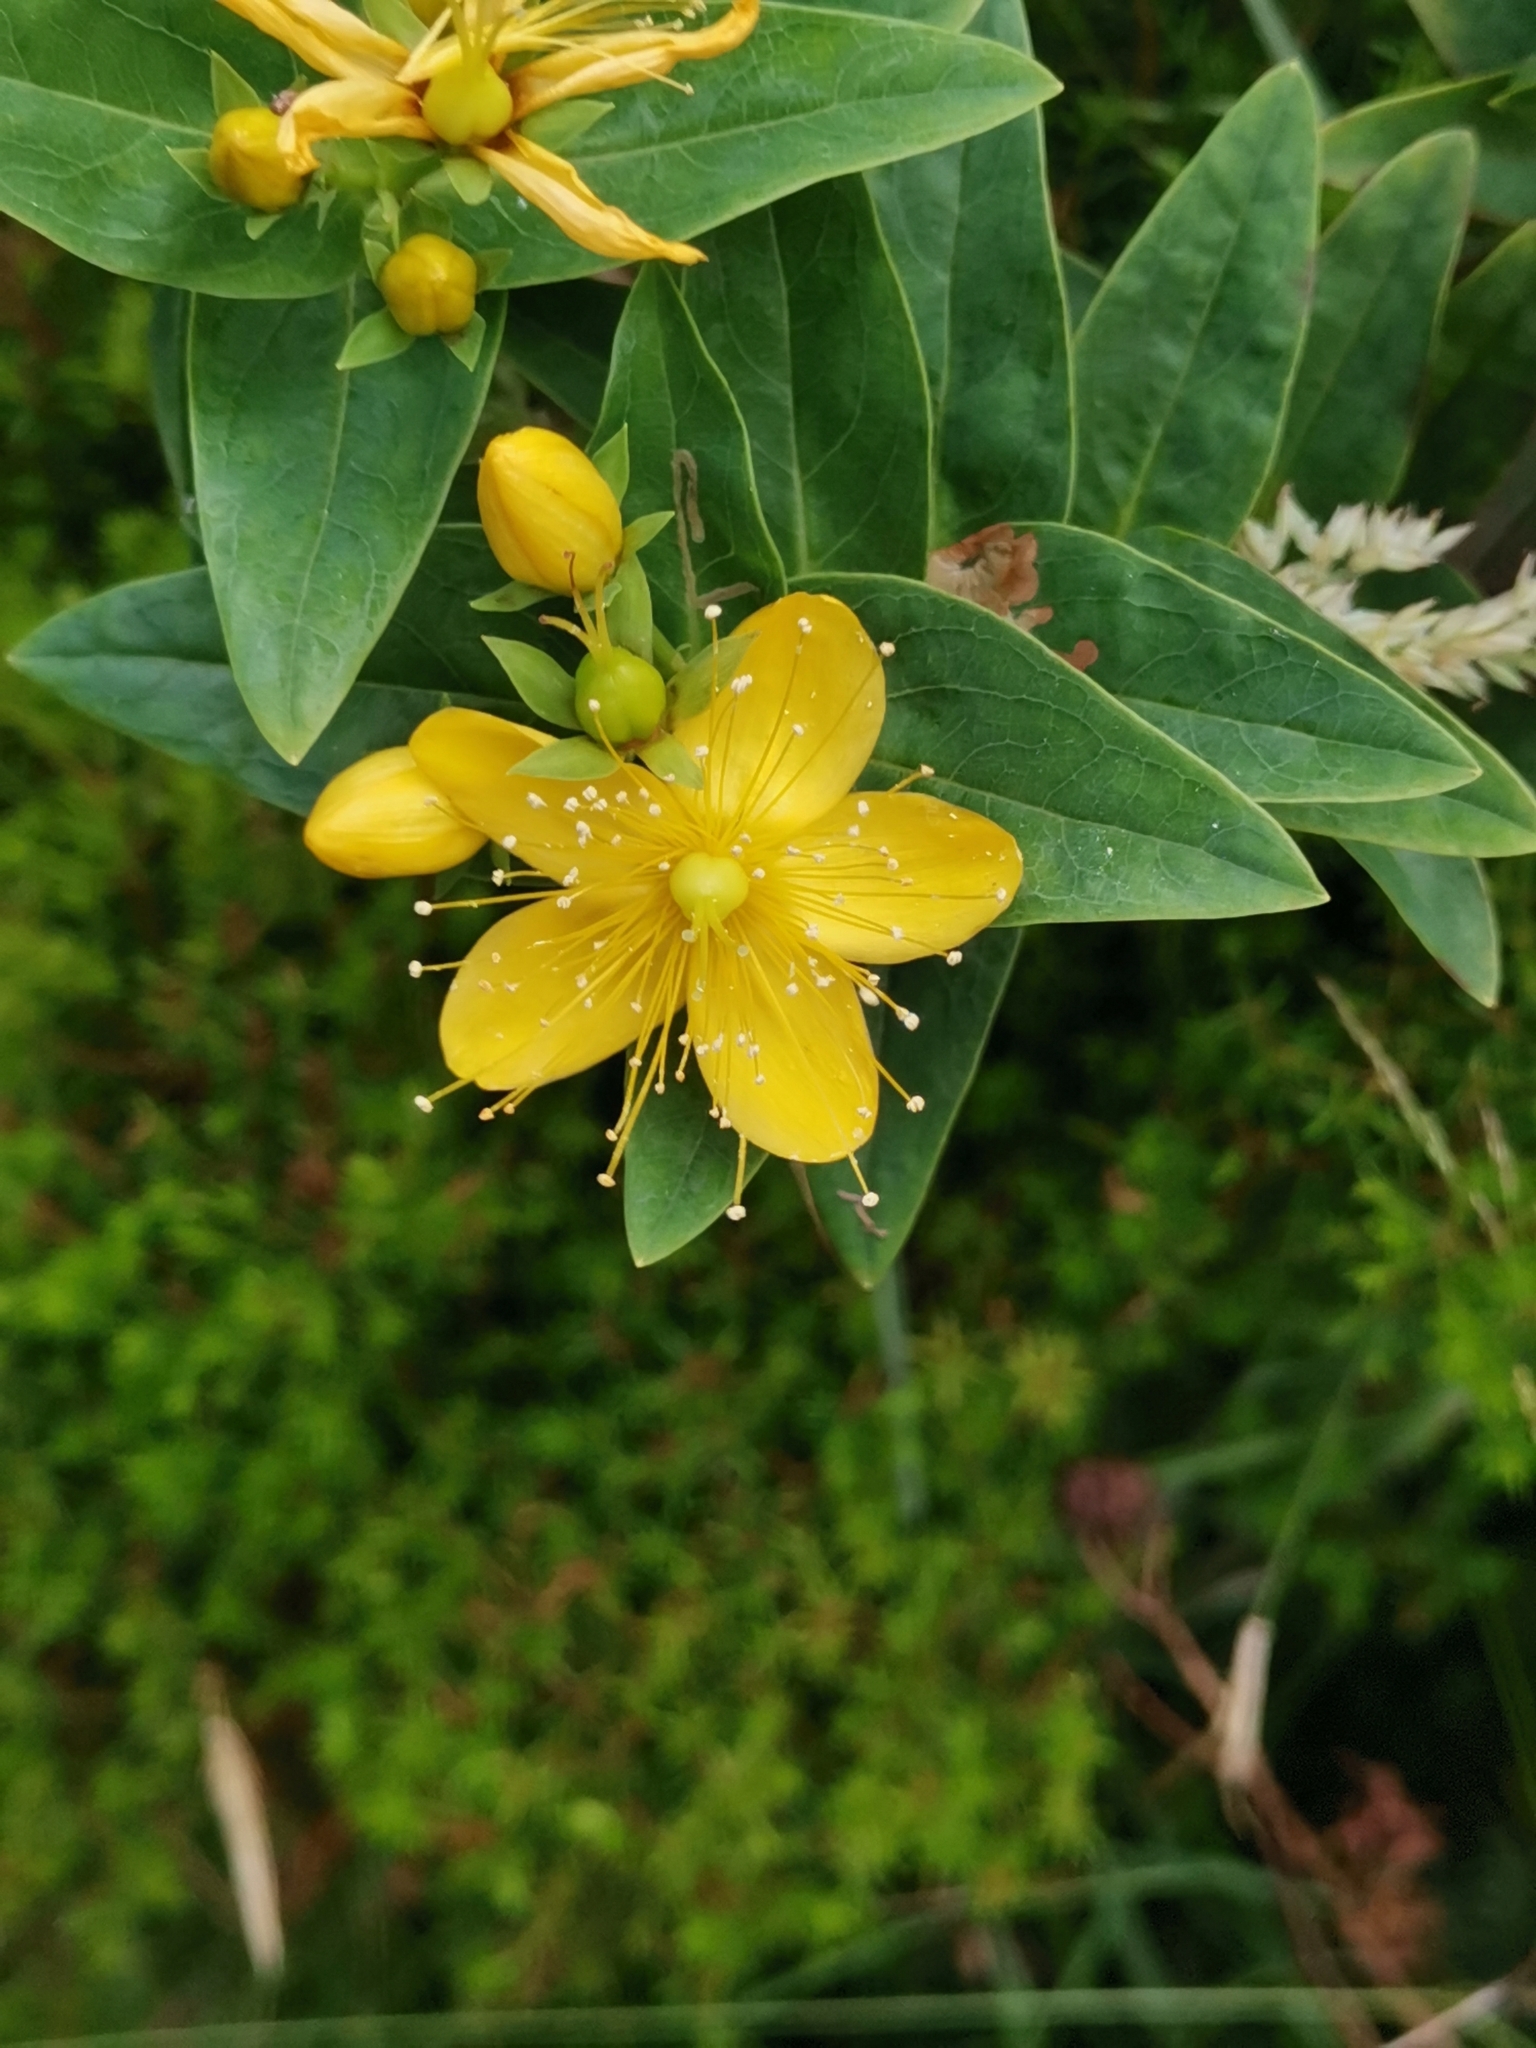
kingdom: Plantae
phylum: Tracheophyta
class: Magnoliopsida
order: Malpighiales
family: Hypericaceae
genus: Hypericum
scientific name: Hypericum foliosum
